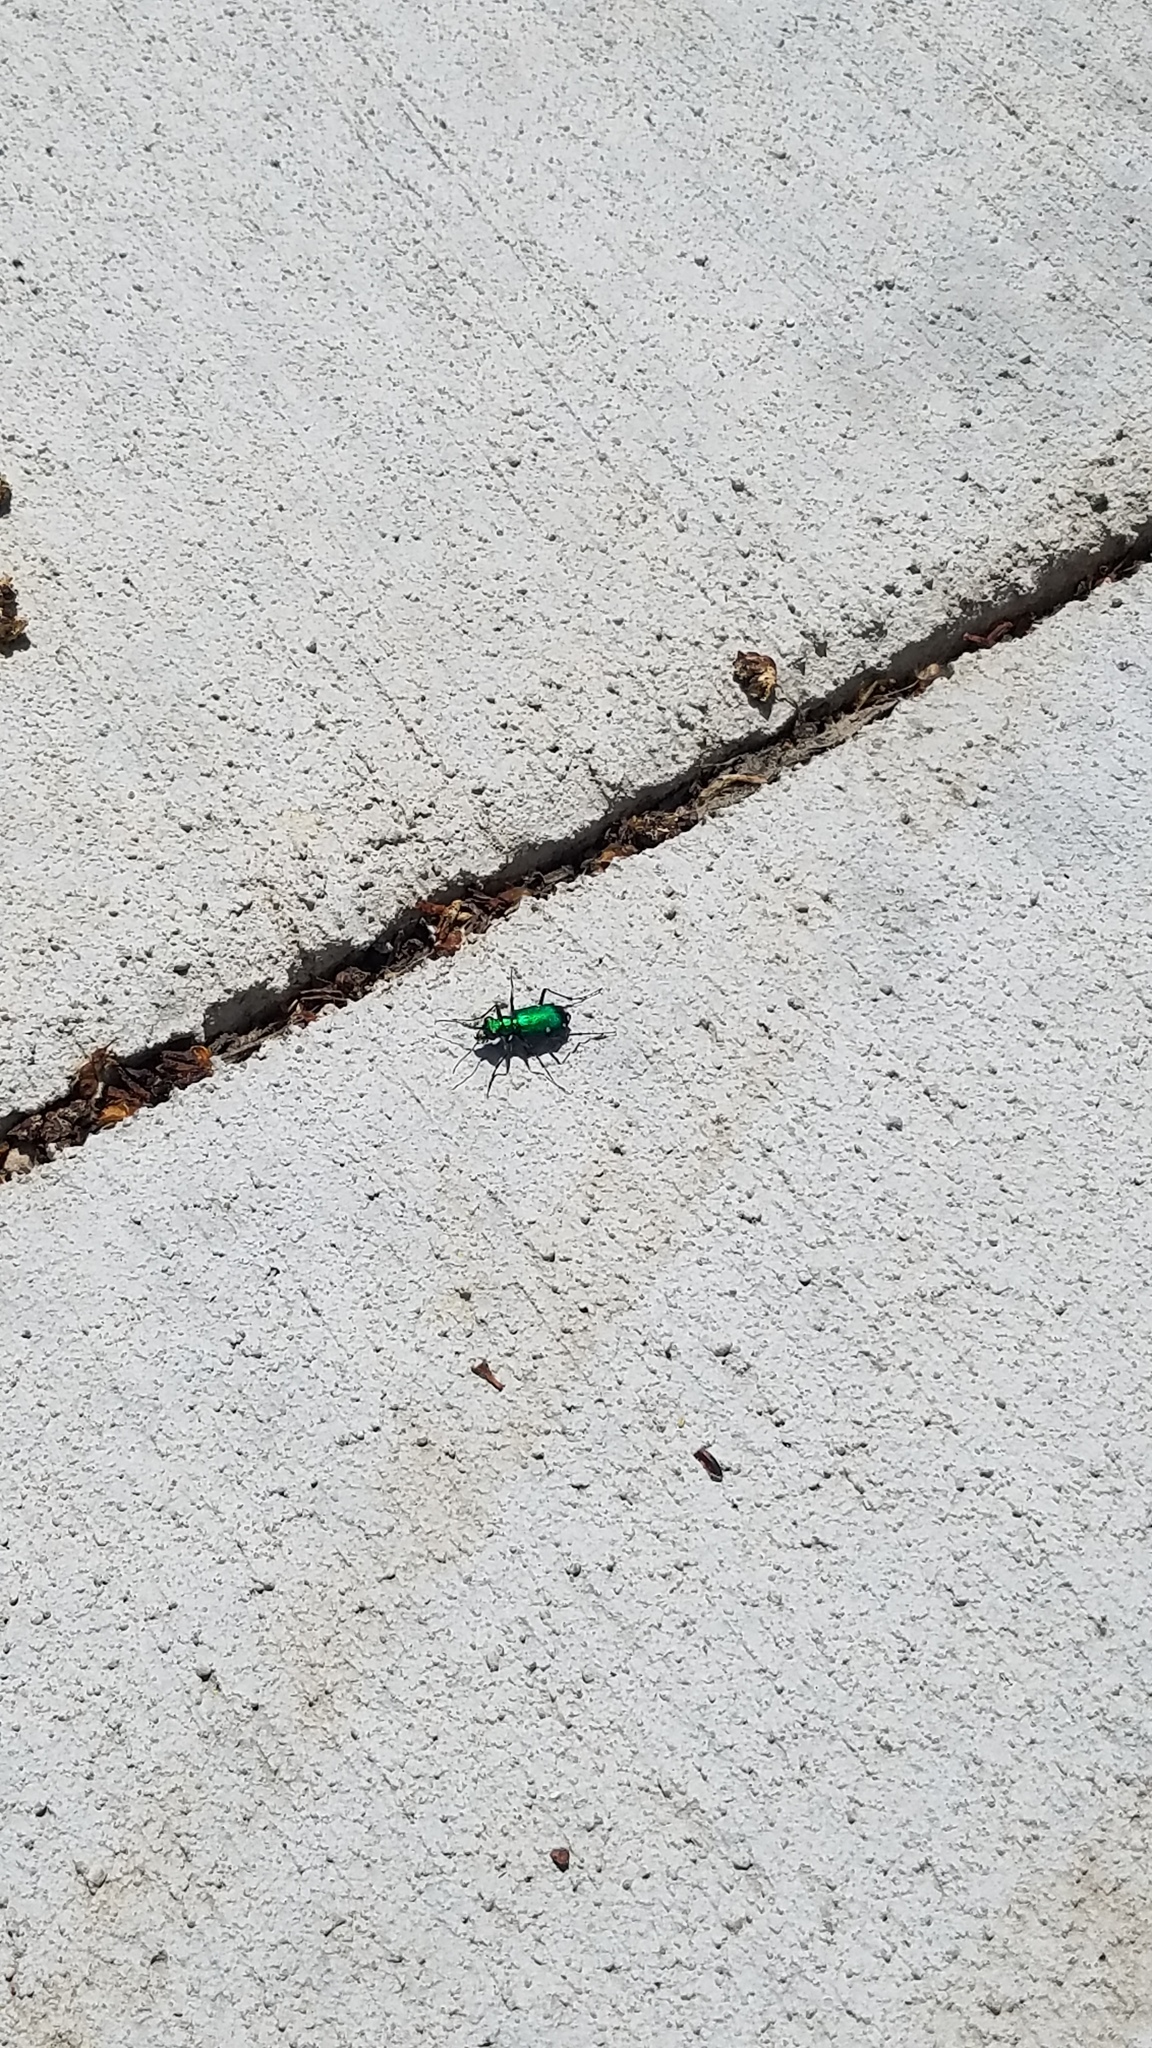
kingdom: Animalia
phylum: Arthropoda
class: Insecta
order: Coleoptera
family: Carabidae
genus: Cicindela
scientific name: Cicindela sexguttata
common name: Six-spotted tiger beetle
